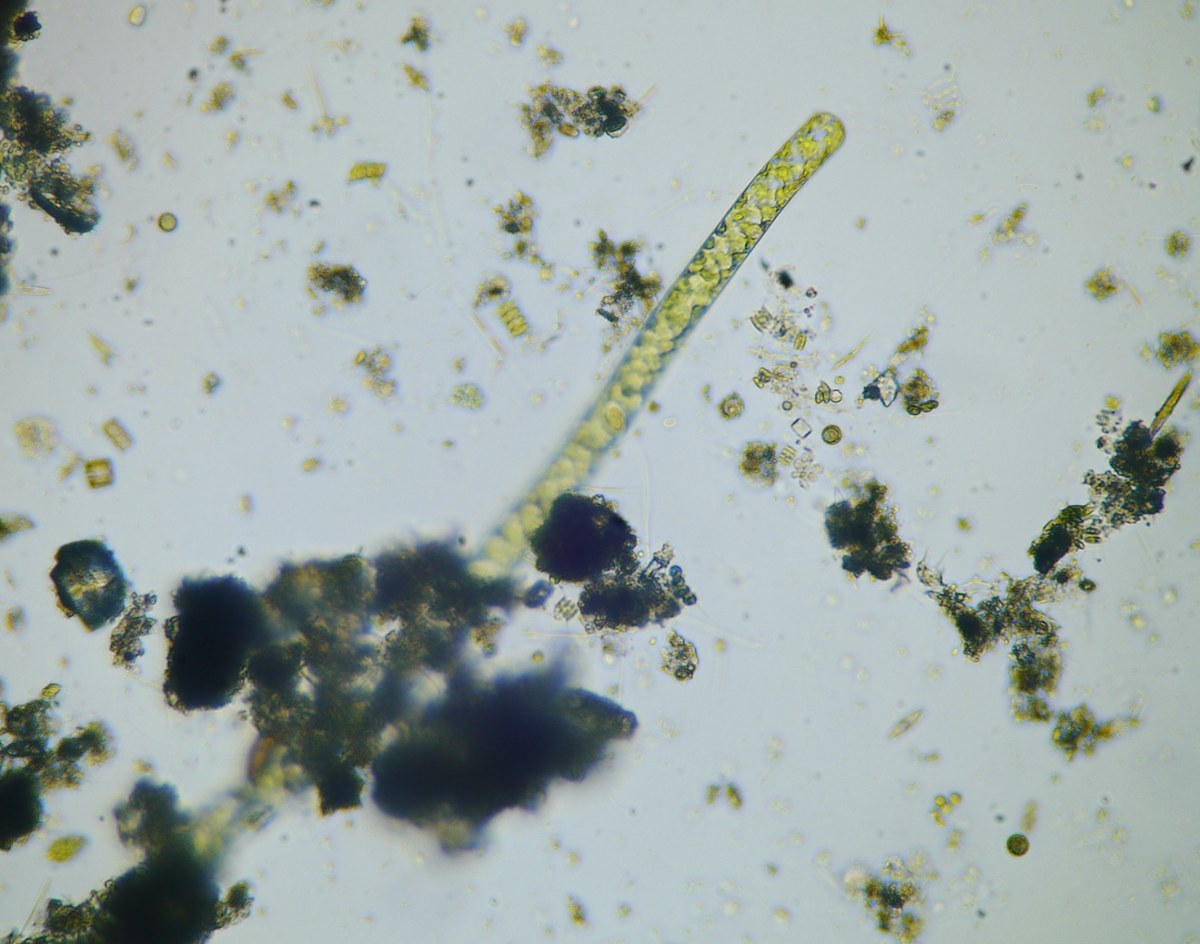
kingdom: Plantae
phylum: Charophyta
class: Zygnematophyceae
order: Zygnematales
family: Zygnemataceae
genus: Spirogyra
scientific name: Spirogyra
